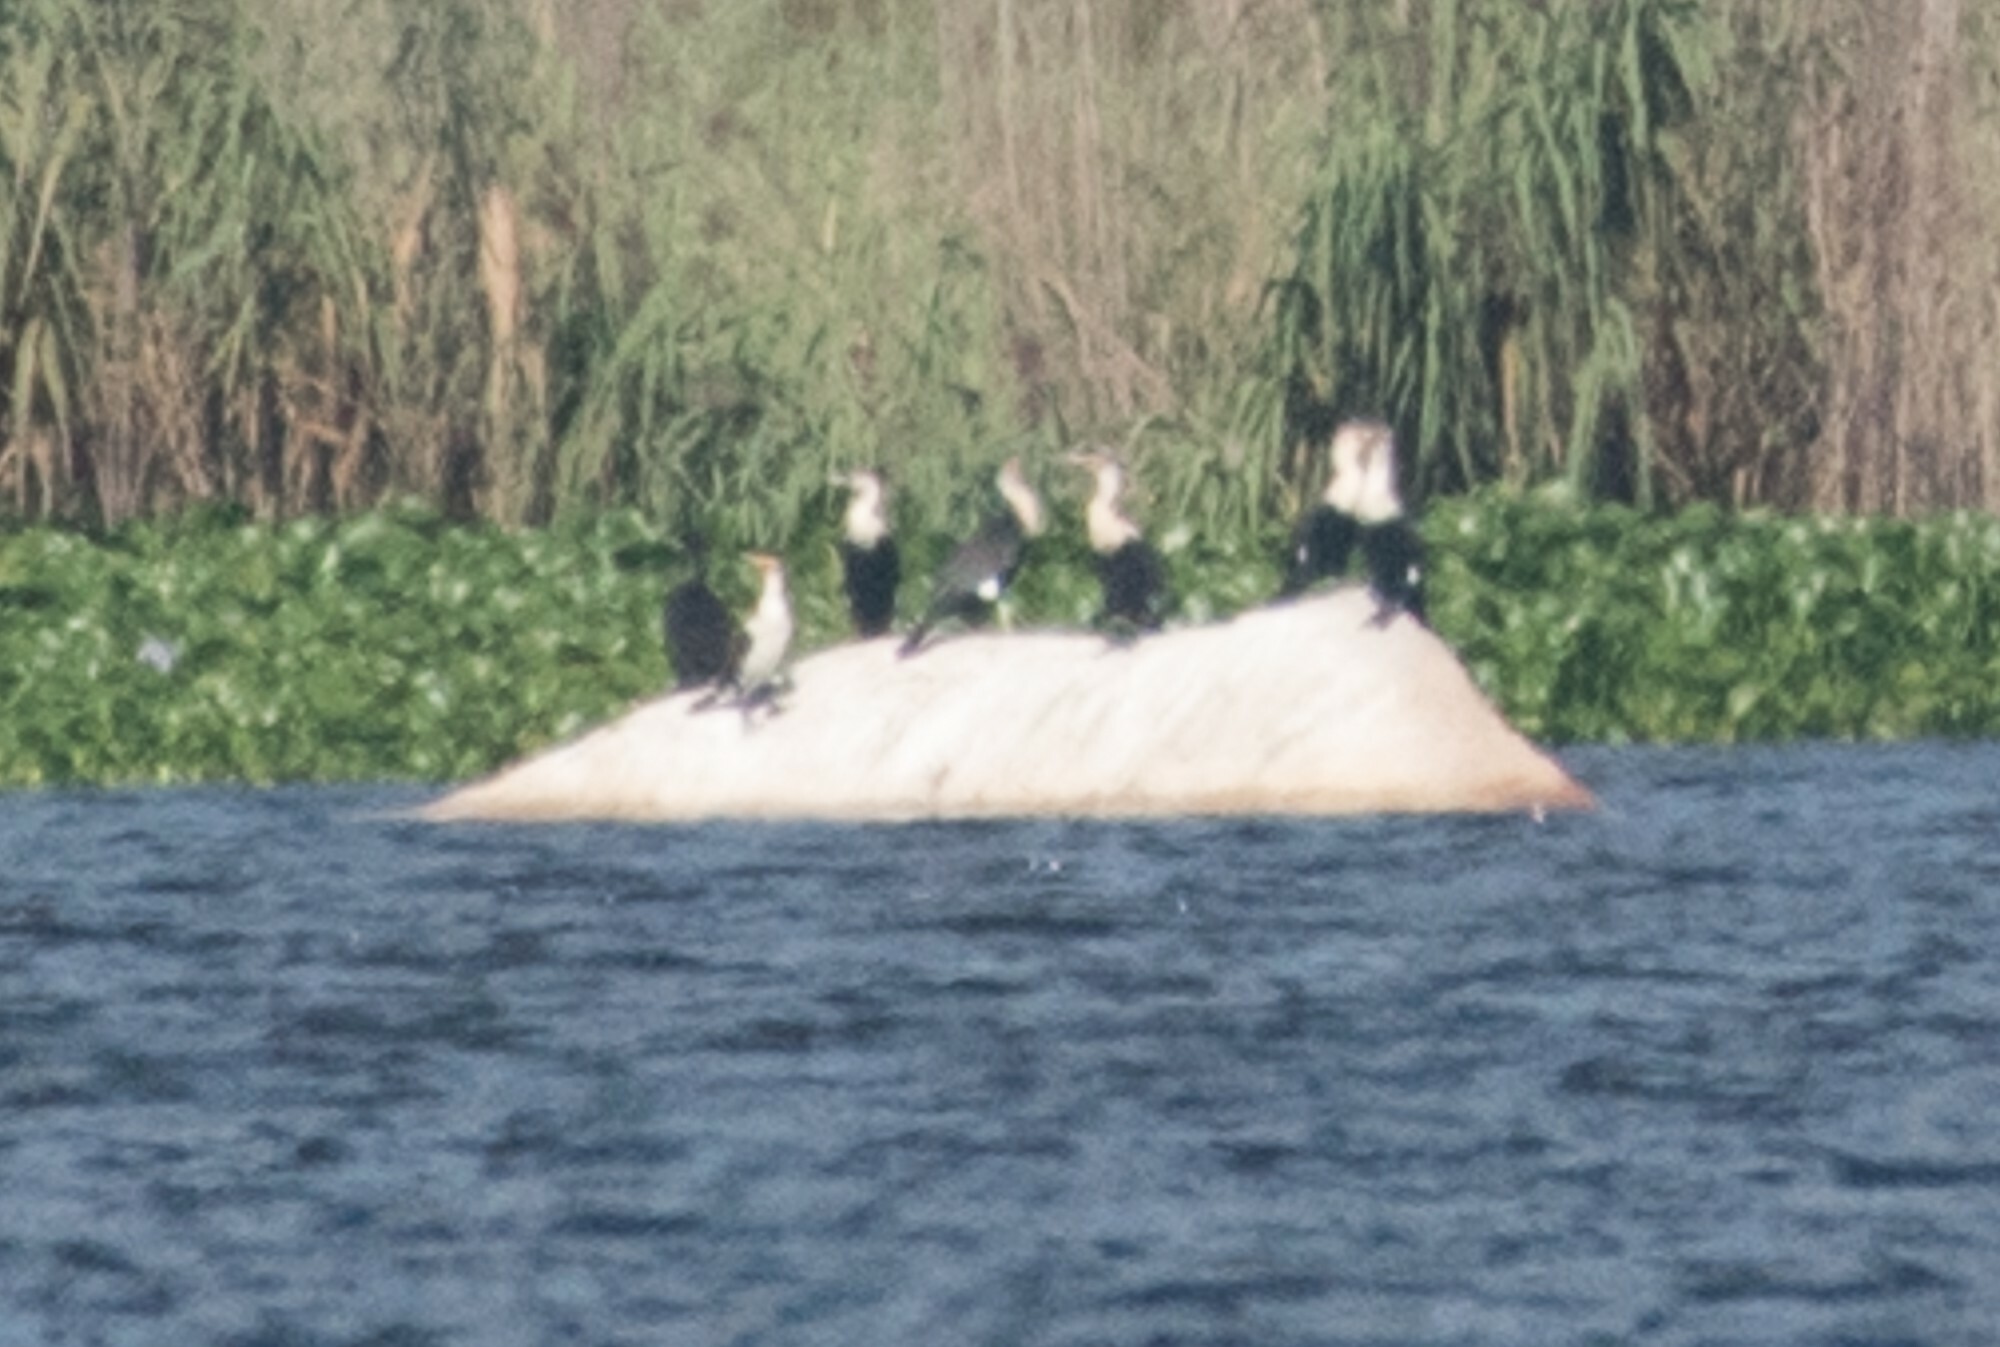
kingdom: Animalia
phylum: Chordata
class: Aves
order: Suliformes
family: Phalacrocoracidae
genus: Phalacrocorax
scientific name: Phalacrocorax carbo
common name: Great cormorant
